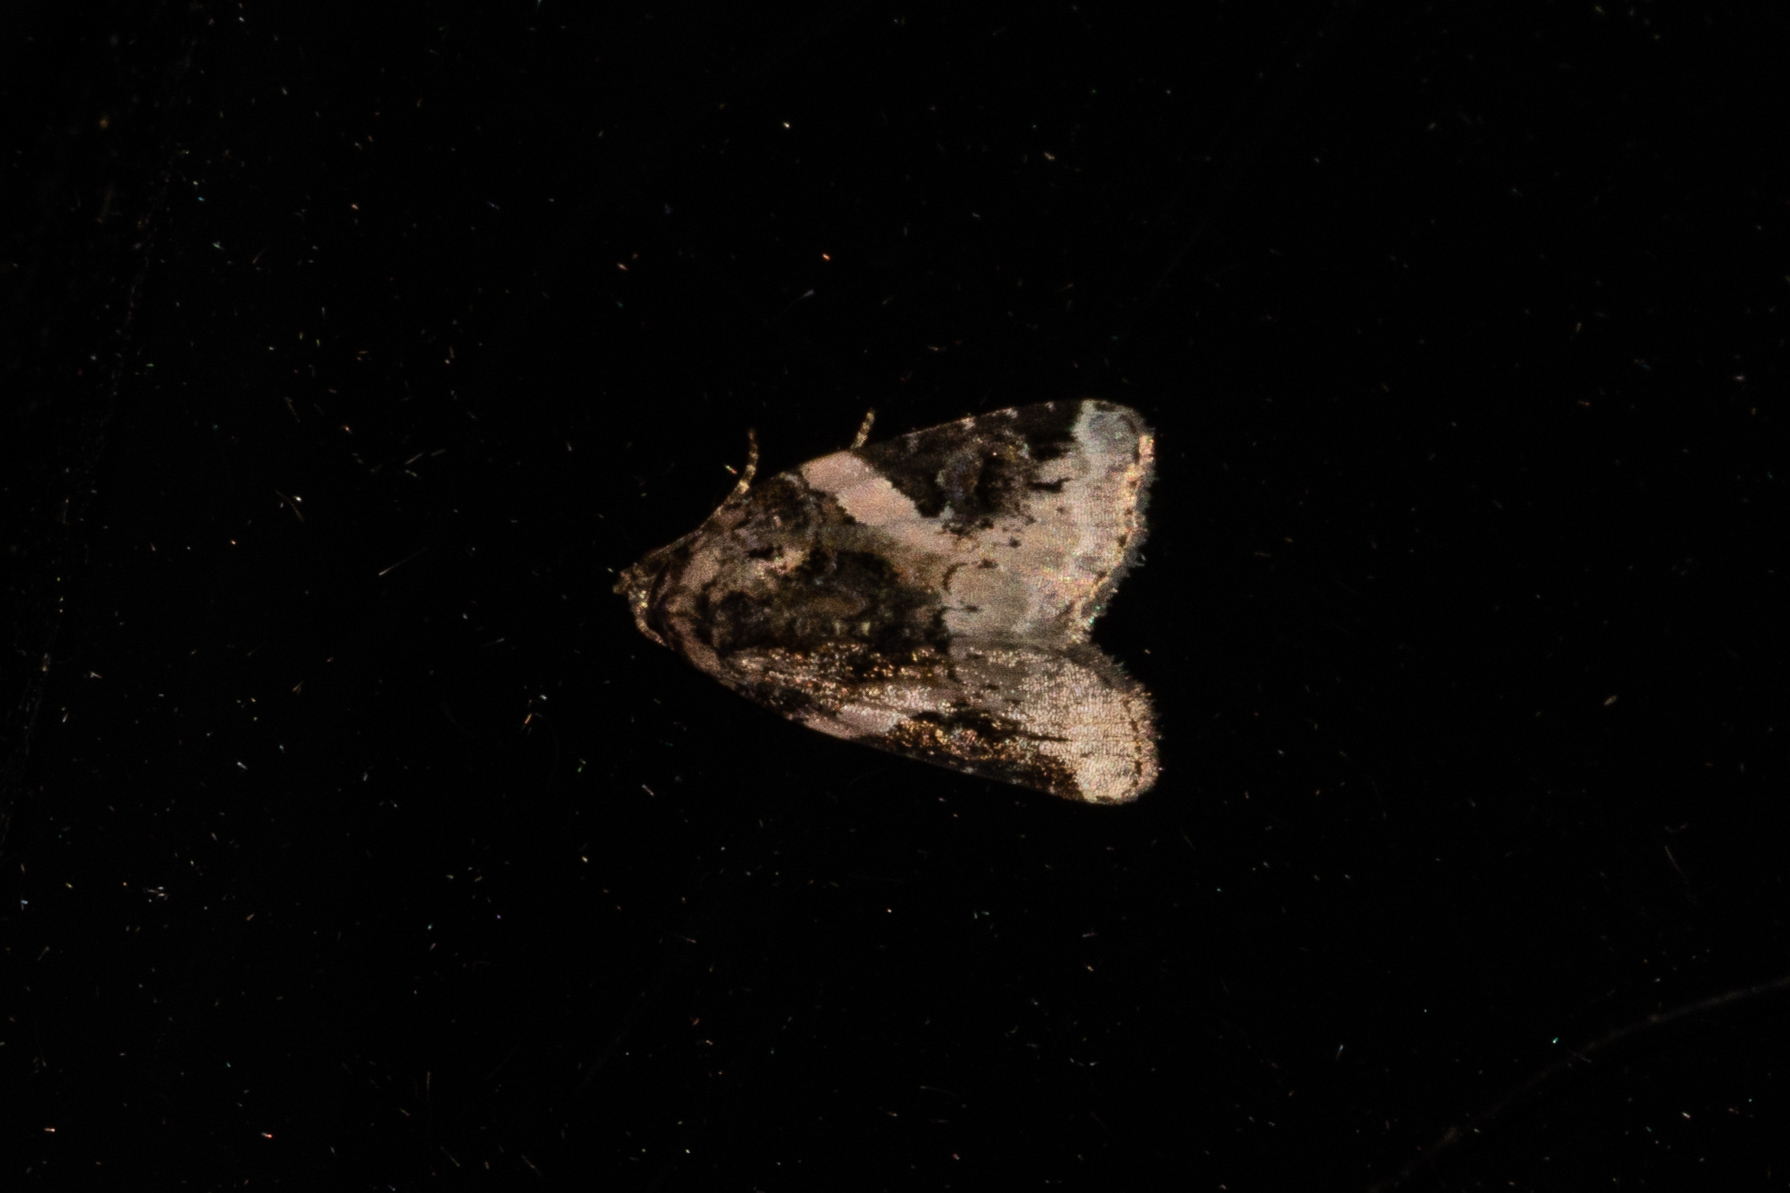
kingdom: Animalia
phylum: Arthropoda
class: Insecta
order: Lepidoptera
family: Noctuidae
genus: Pseudeustrotia
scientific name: Pseudeustrotia carneola
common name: Pink-barred lithacodia moth
